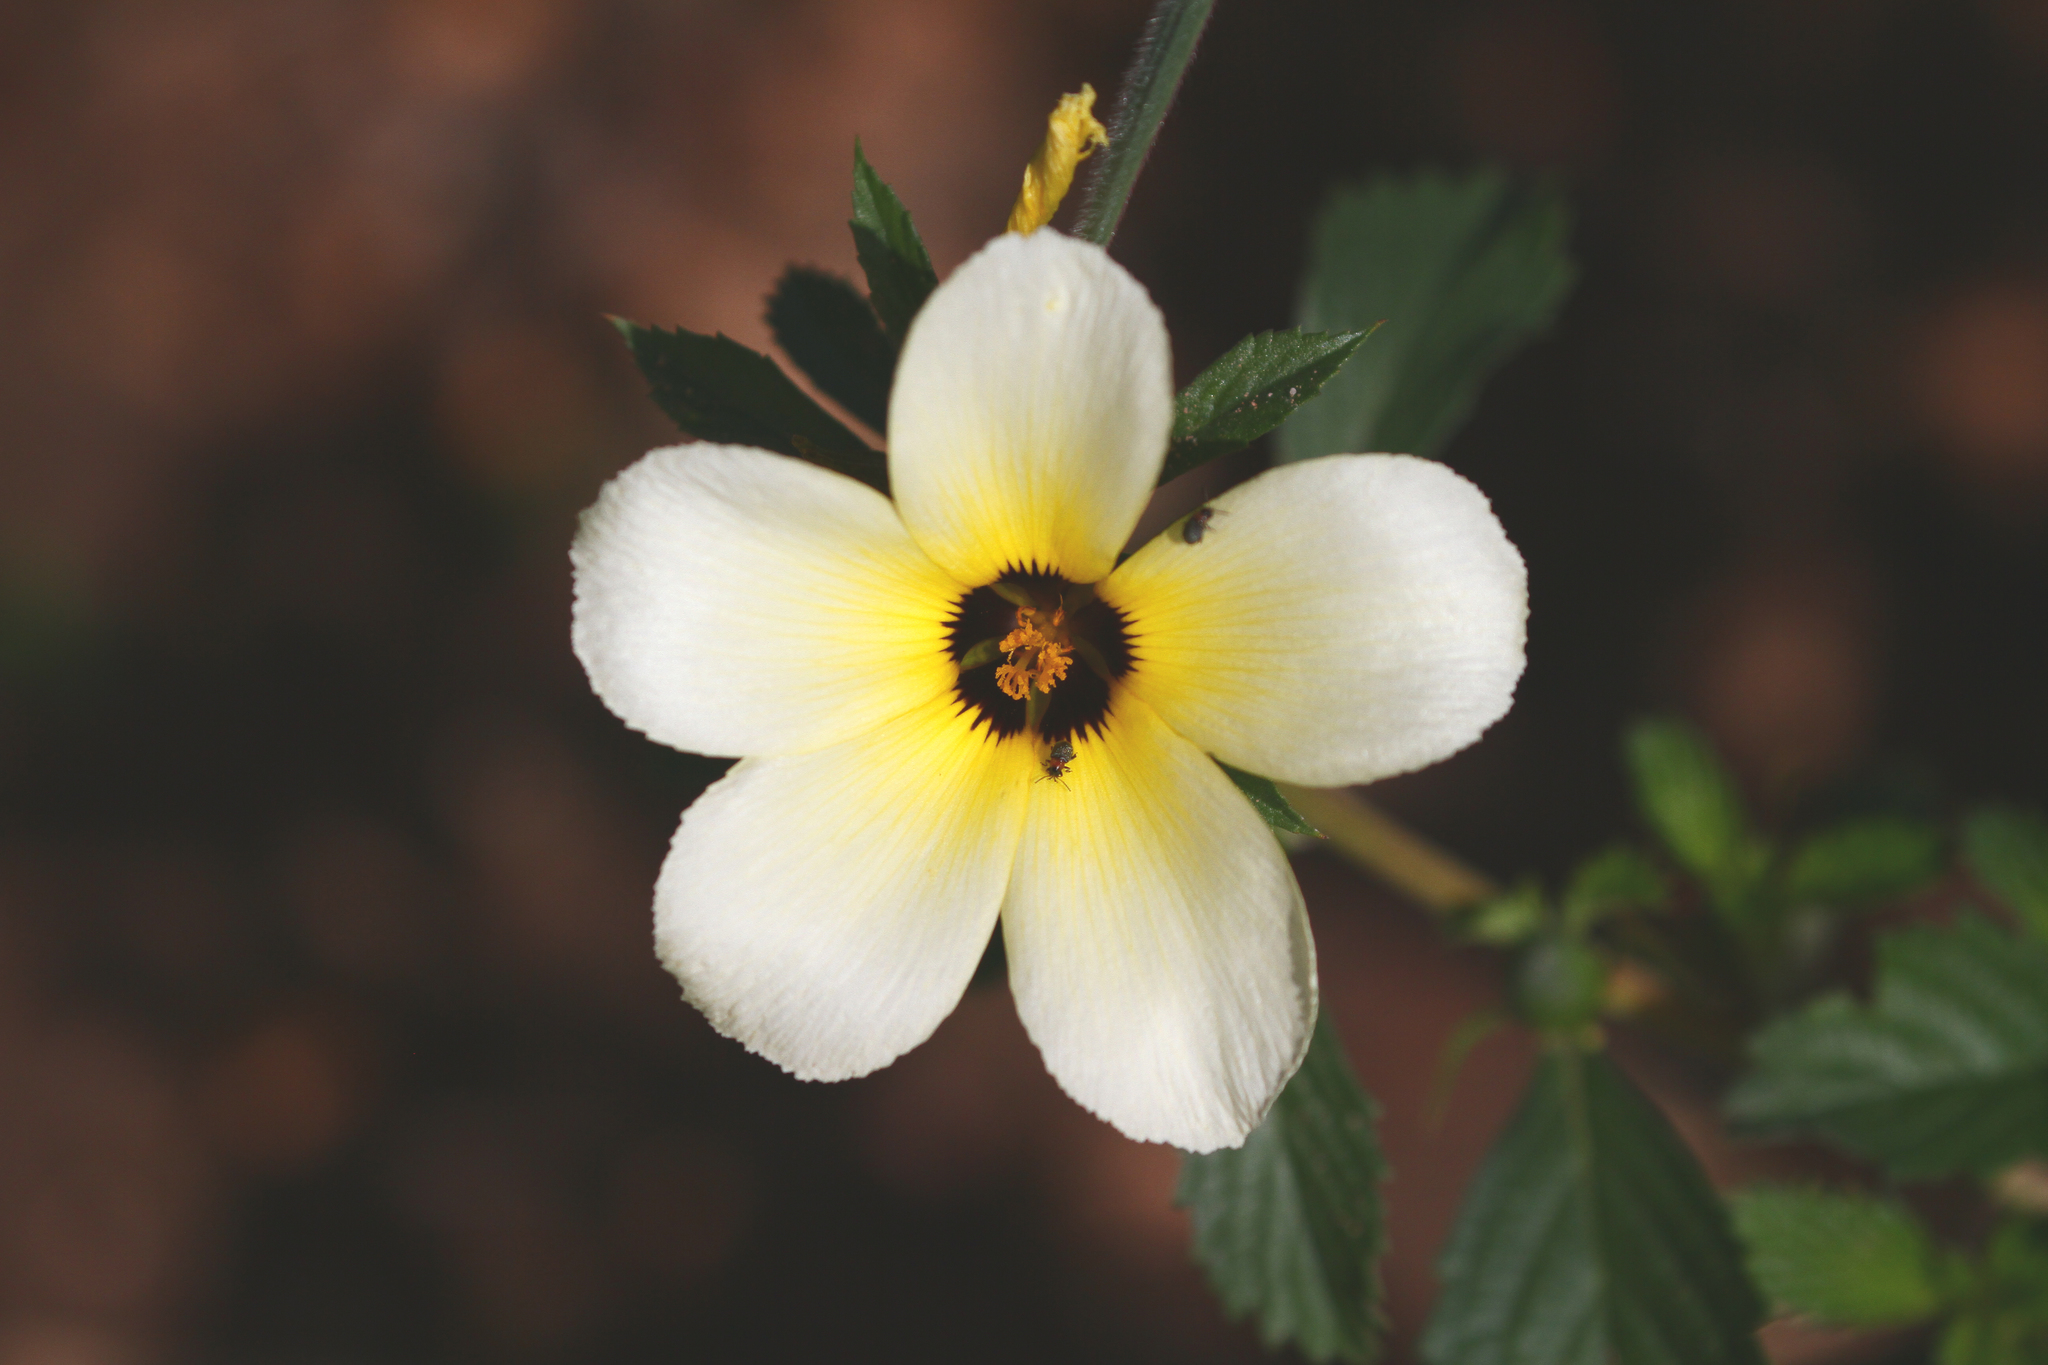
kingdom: Plantae
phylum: Tracheophyta
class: Magnoliopsida
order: Malpighiales
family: Turneraceae
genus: Turnera
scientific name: Turnera subulata
